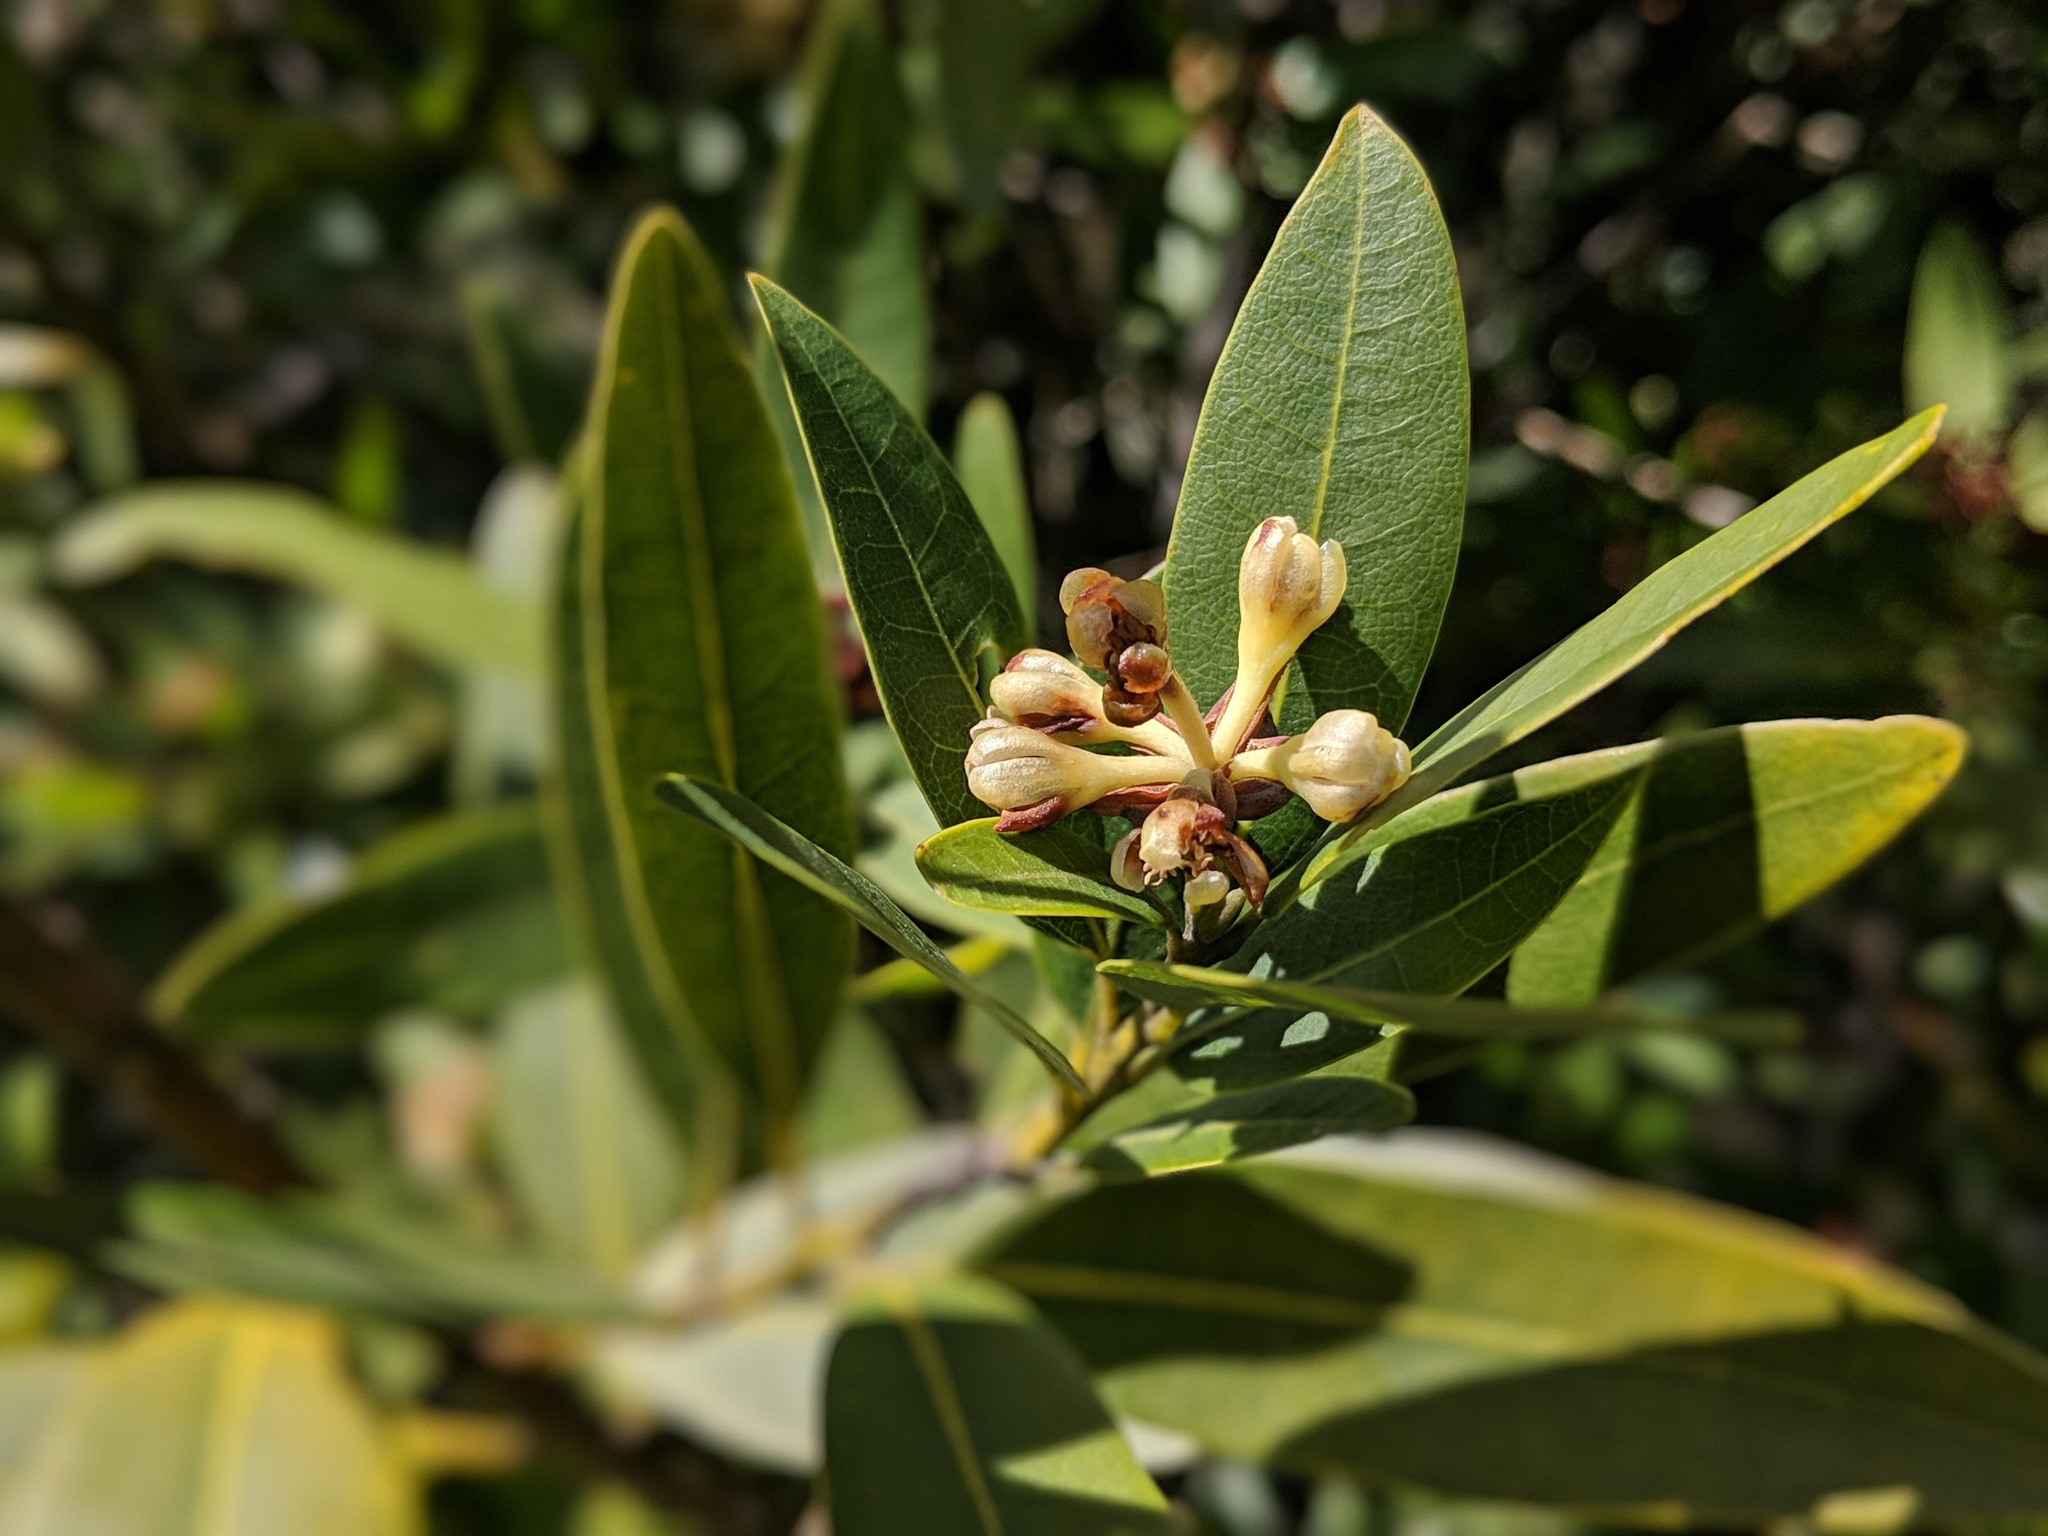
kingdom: Plantae
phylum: Tracheophyta
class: Magnoliopsida
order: Laurales
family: Lauraceae
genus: Umbellularia
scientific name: Umbellularia californica
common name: California bay
